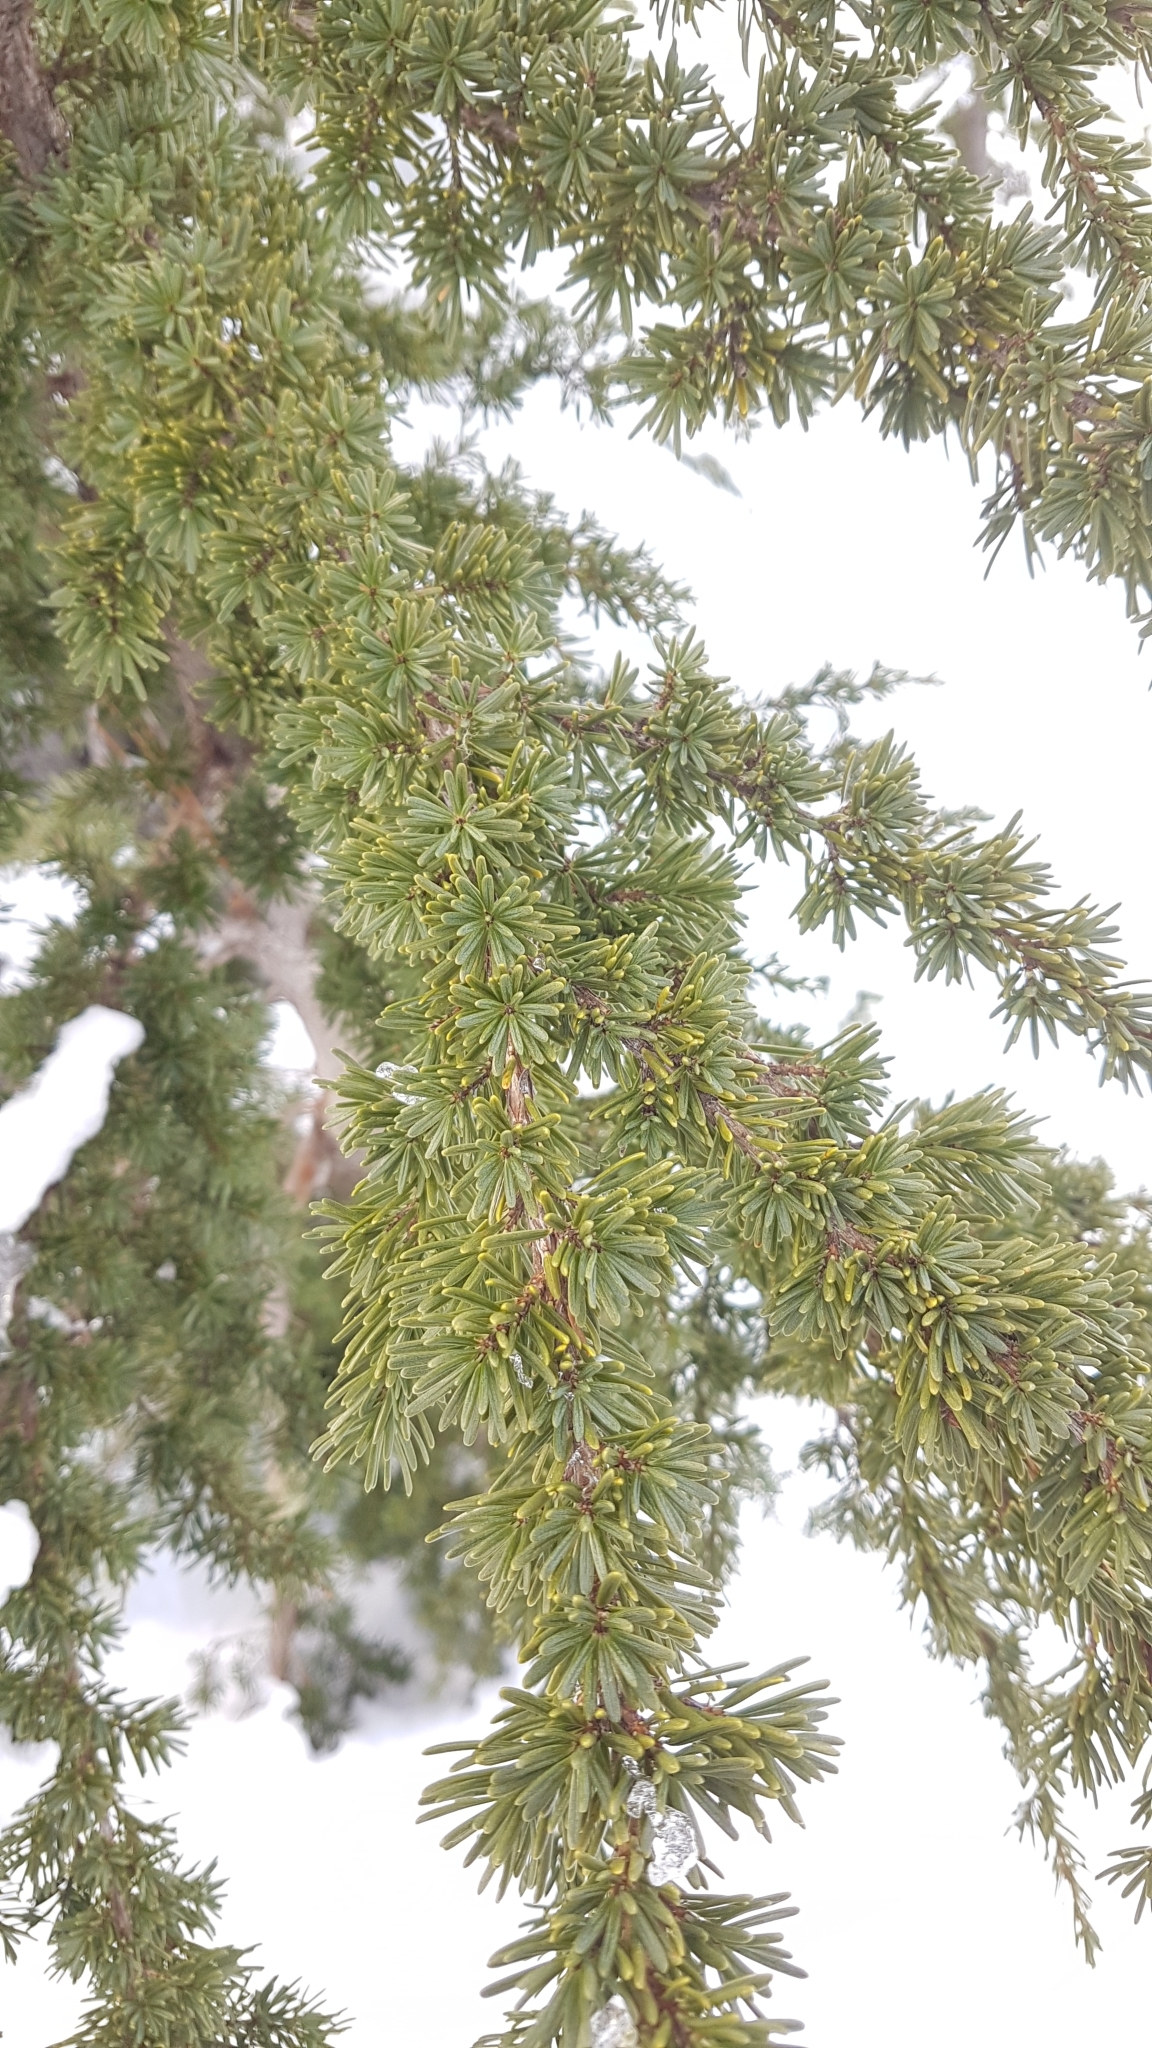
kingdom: Plantae
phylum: Tracheophyta
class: Pinopsida
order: Pinales
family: Pinaceae
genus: Tsuga
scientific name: Tsuga mertensiana
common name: Mountain hemlock
